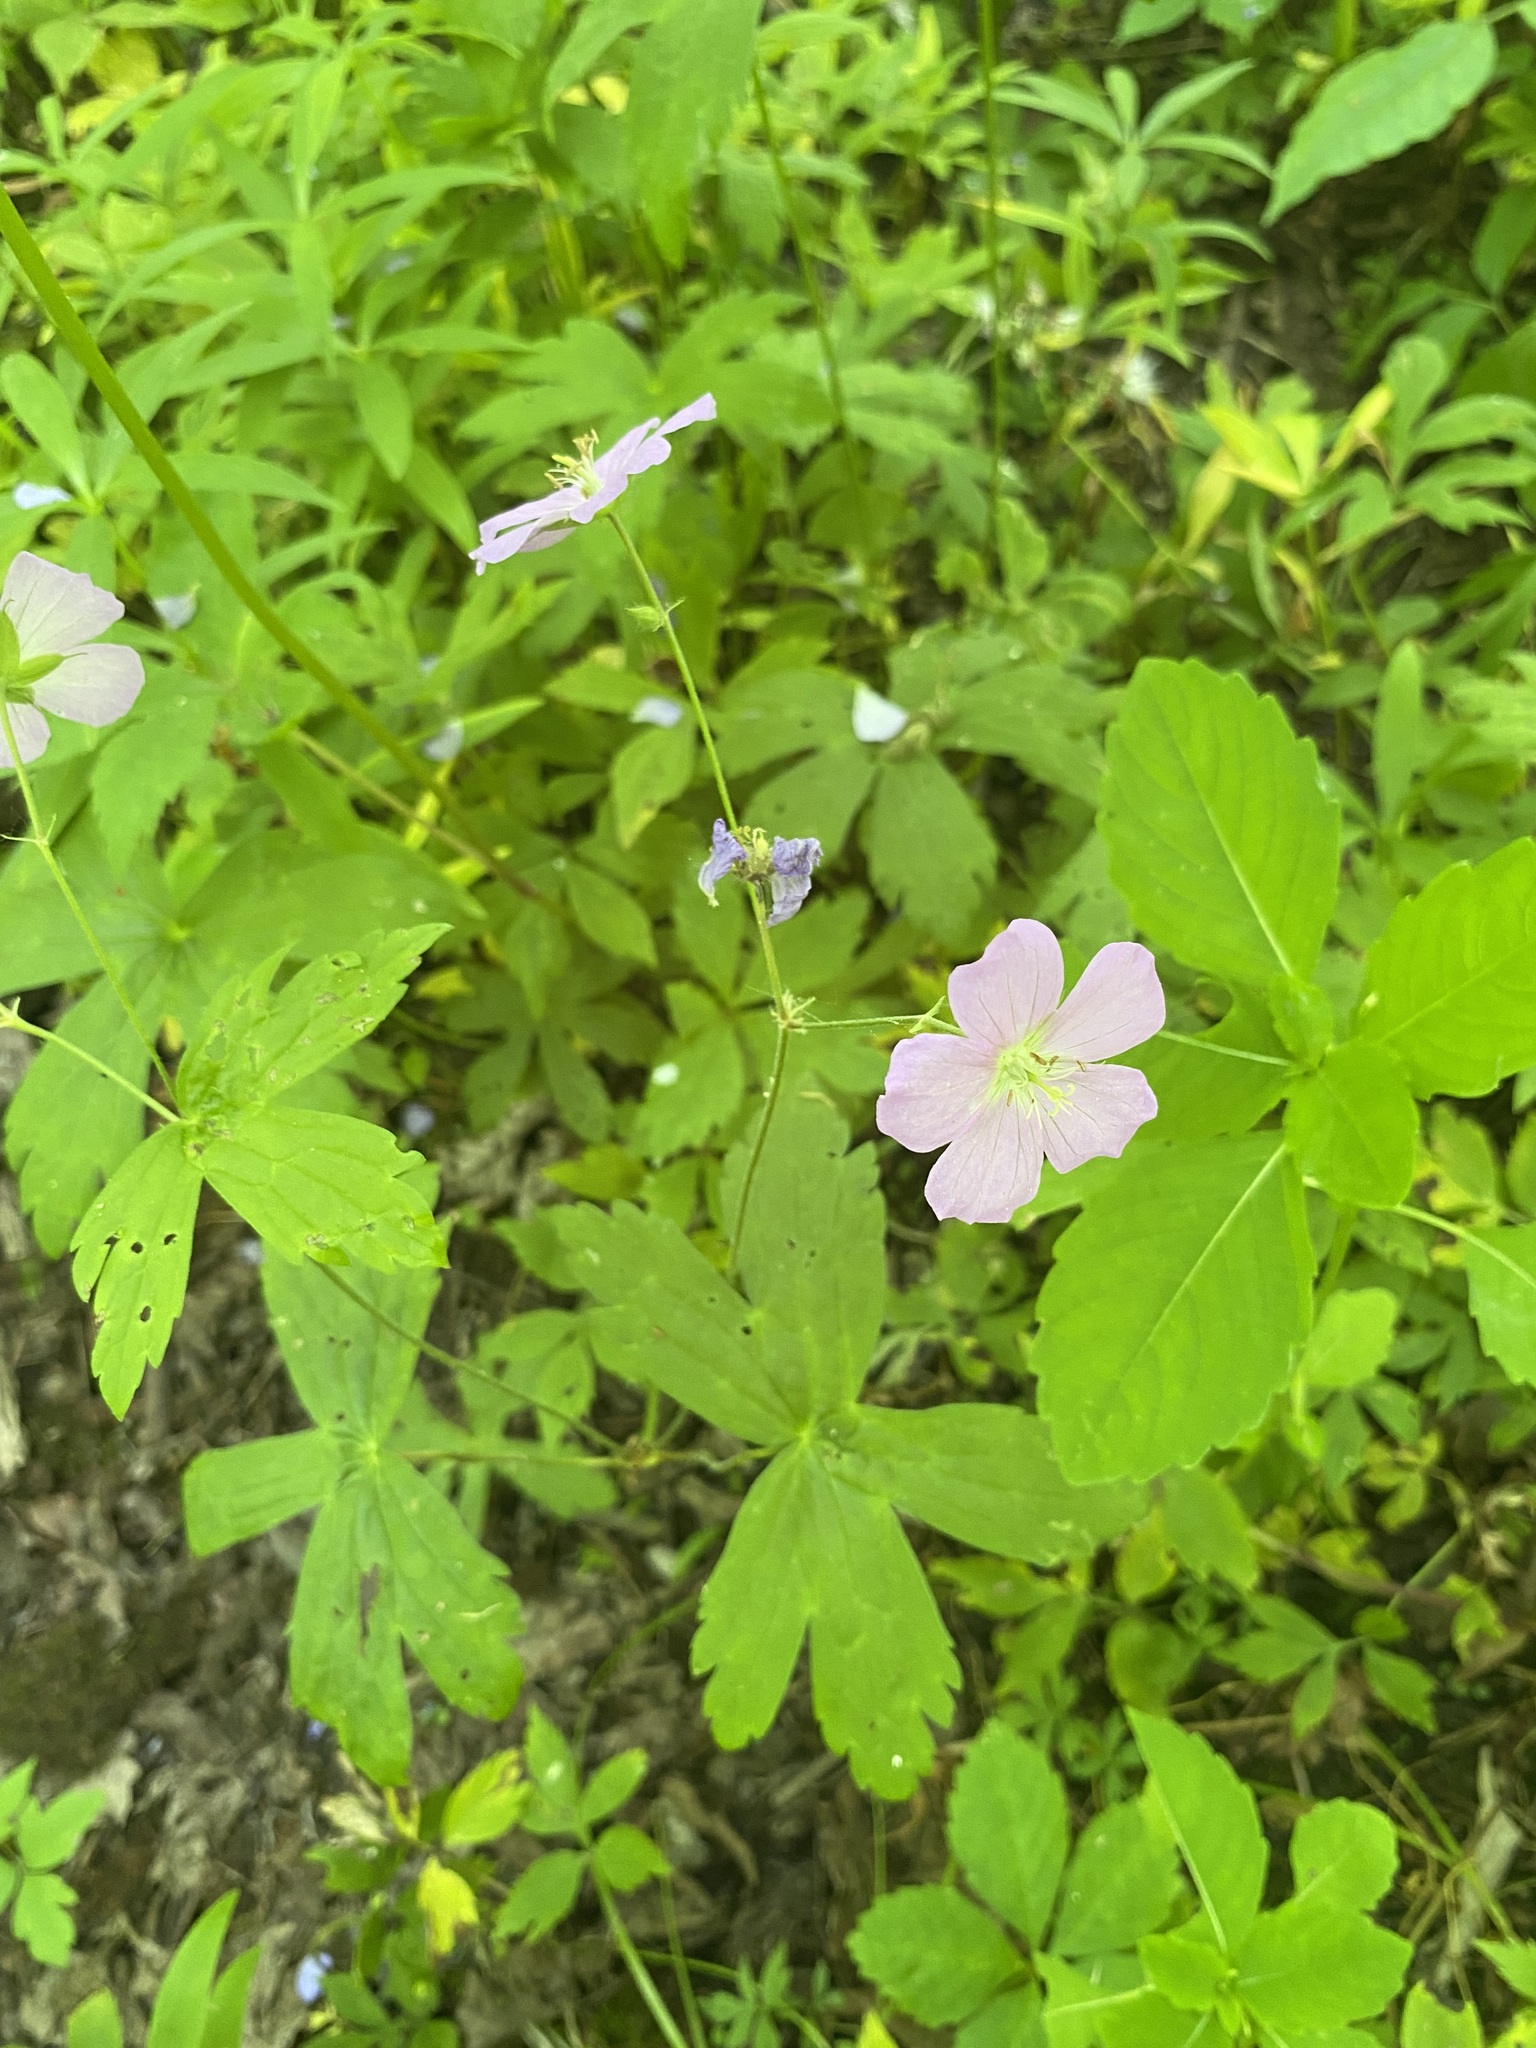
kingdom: Plantae
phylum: Tracheophyta
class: Magnoliopsida
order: Geraniales
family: Geraniaceae
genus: Geranium
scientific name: Geranium maculatum
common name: Spotted geranium
